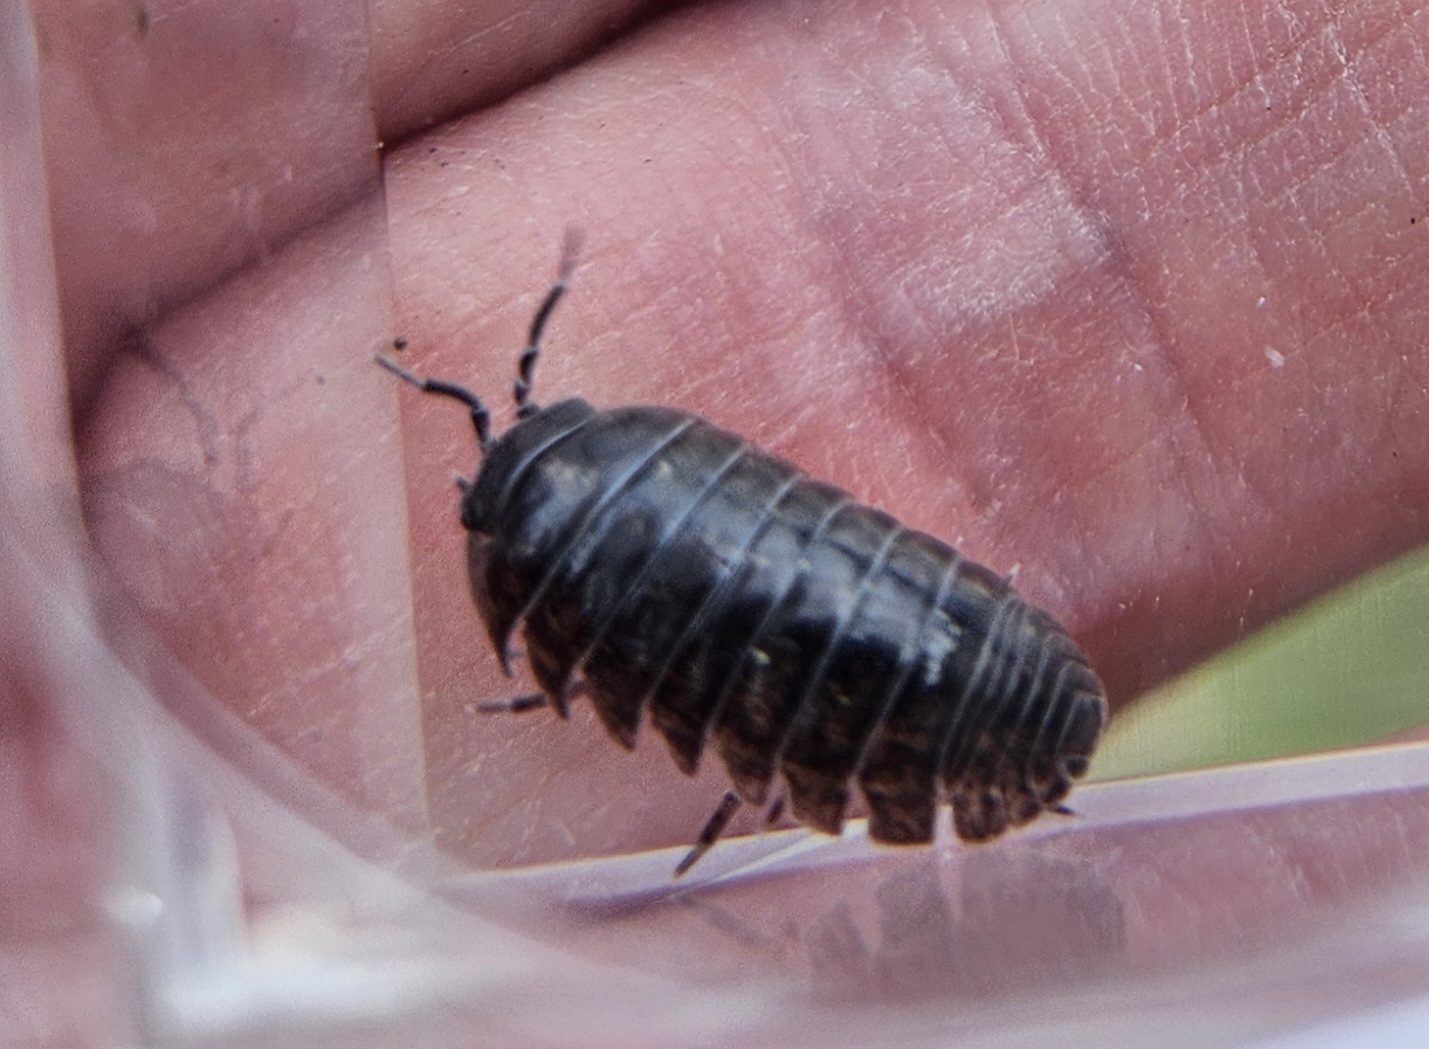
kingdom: Animalia
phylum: Arthropoda
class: Malacostraca
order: Isopoda
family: Armadillidiidae
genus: Armadillidium
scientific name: Armadillidium vulgare
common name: Common pill woodlouse
